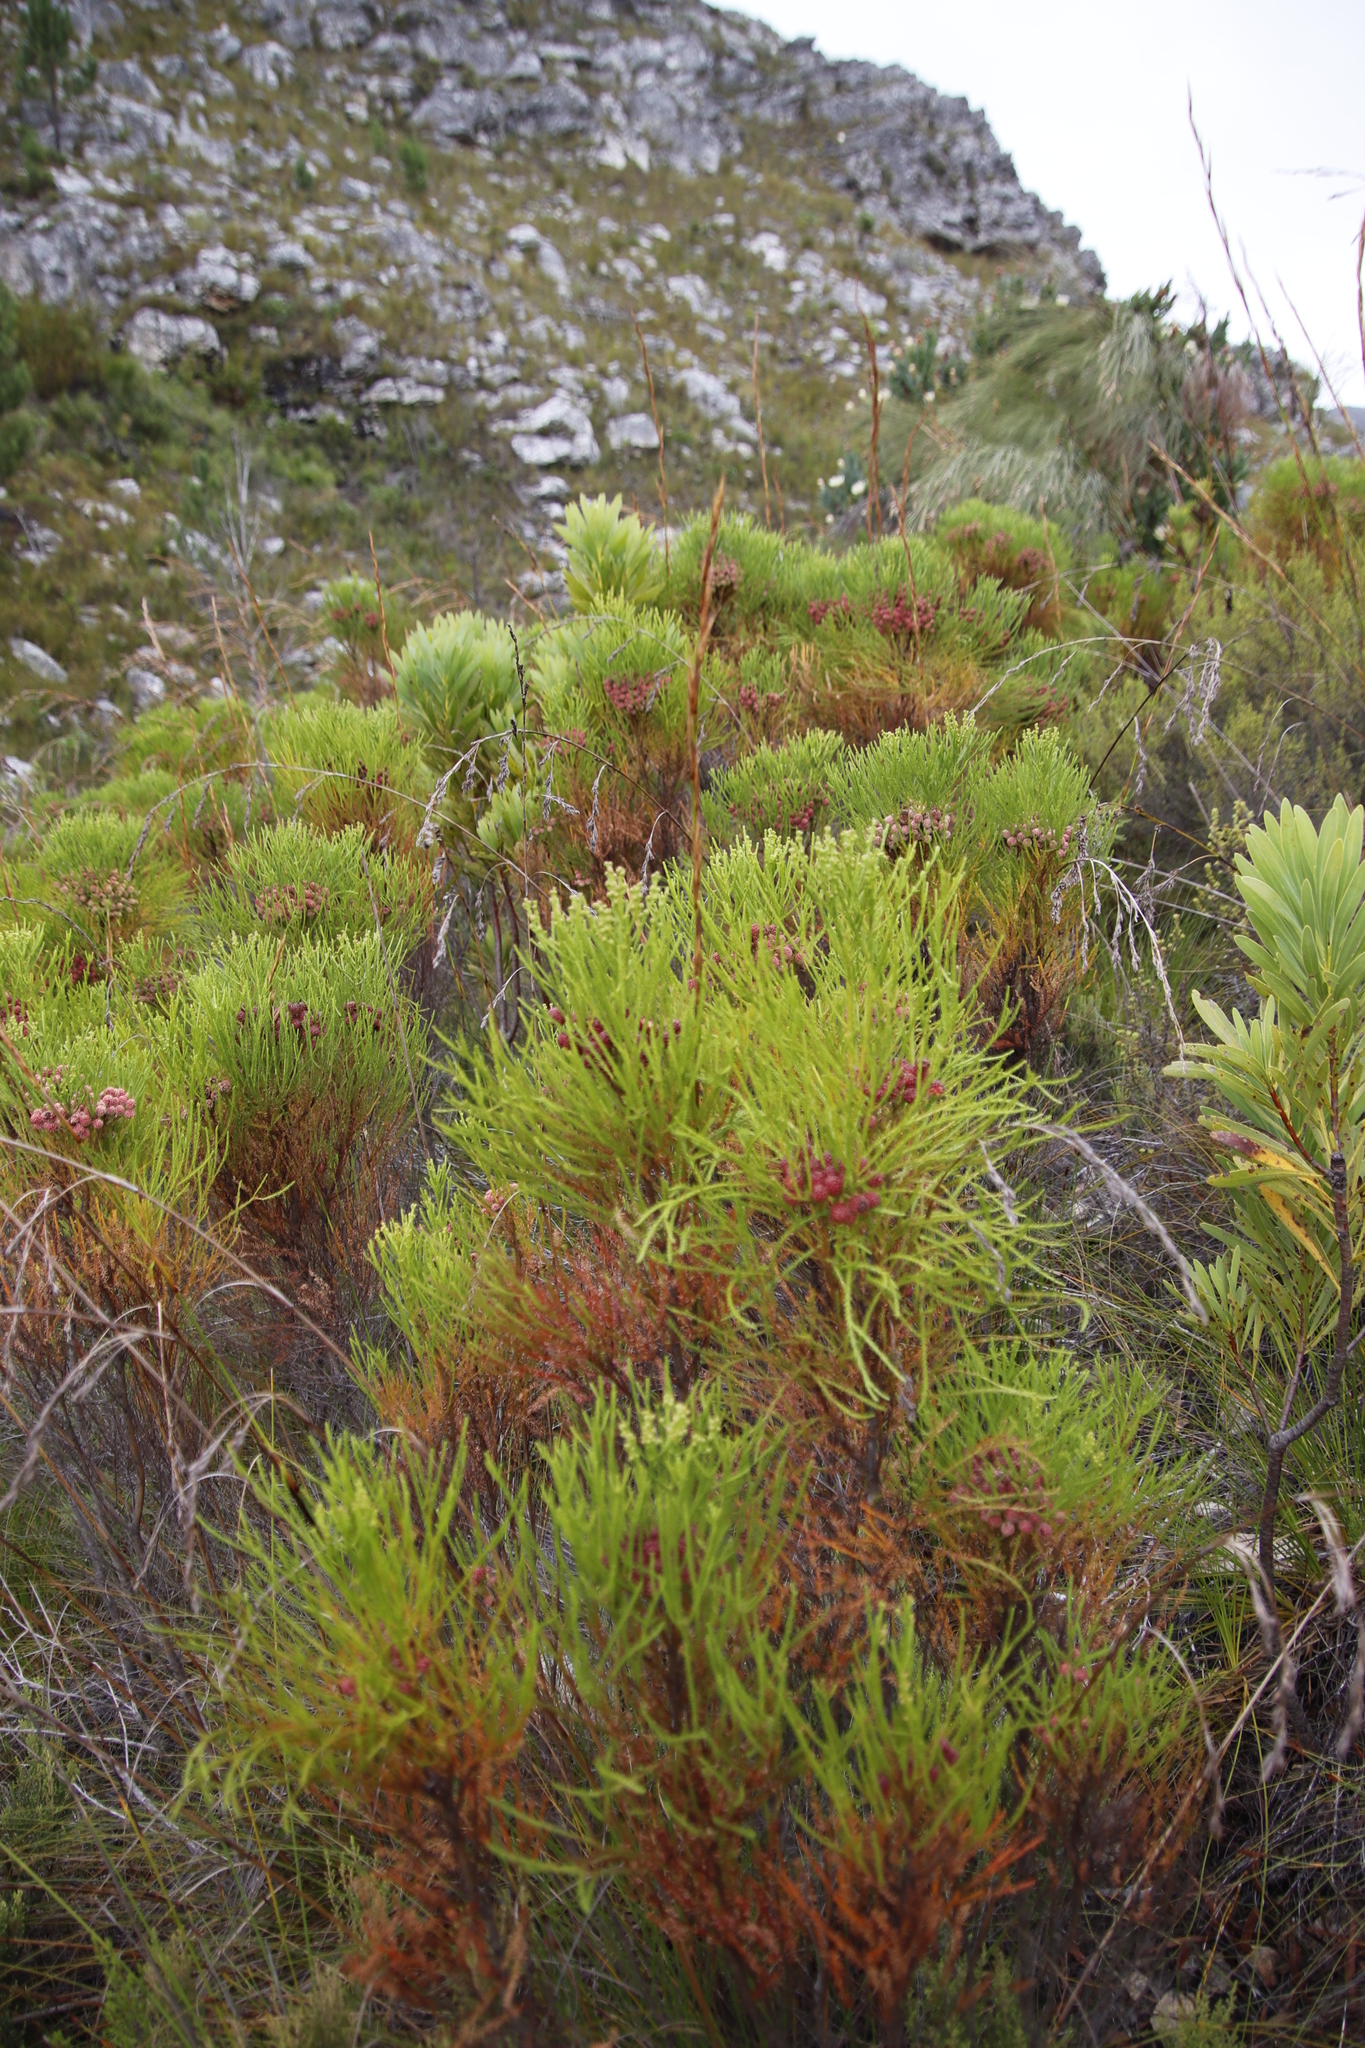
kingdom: Plantae
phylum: Tracheophyta
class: Magnoliopsida
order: Bruniales
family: Bruniaceae
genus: Berzelia
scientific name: Berzelia lanuginosa
